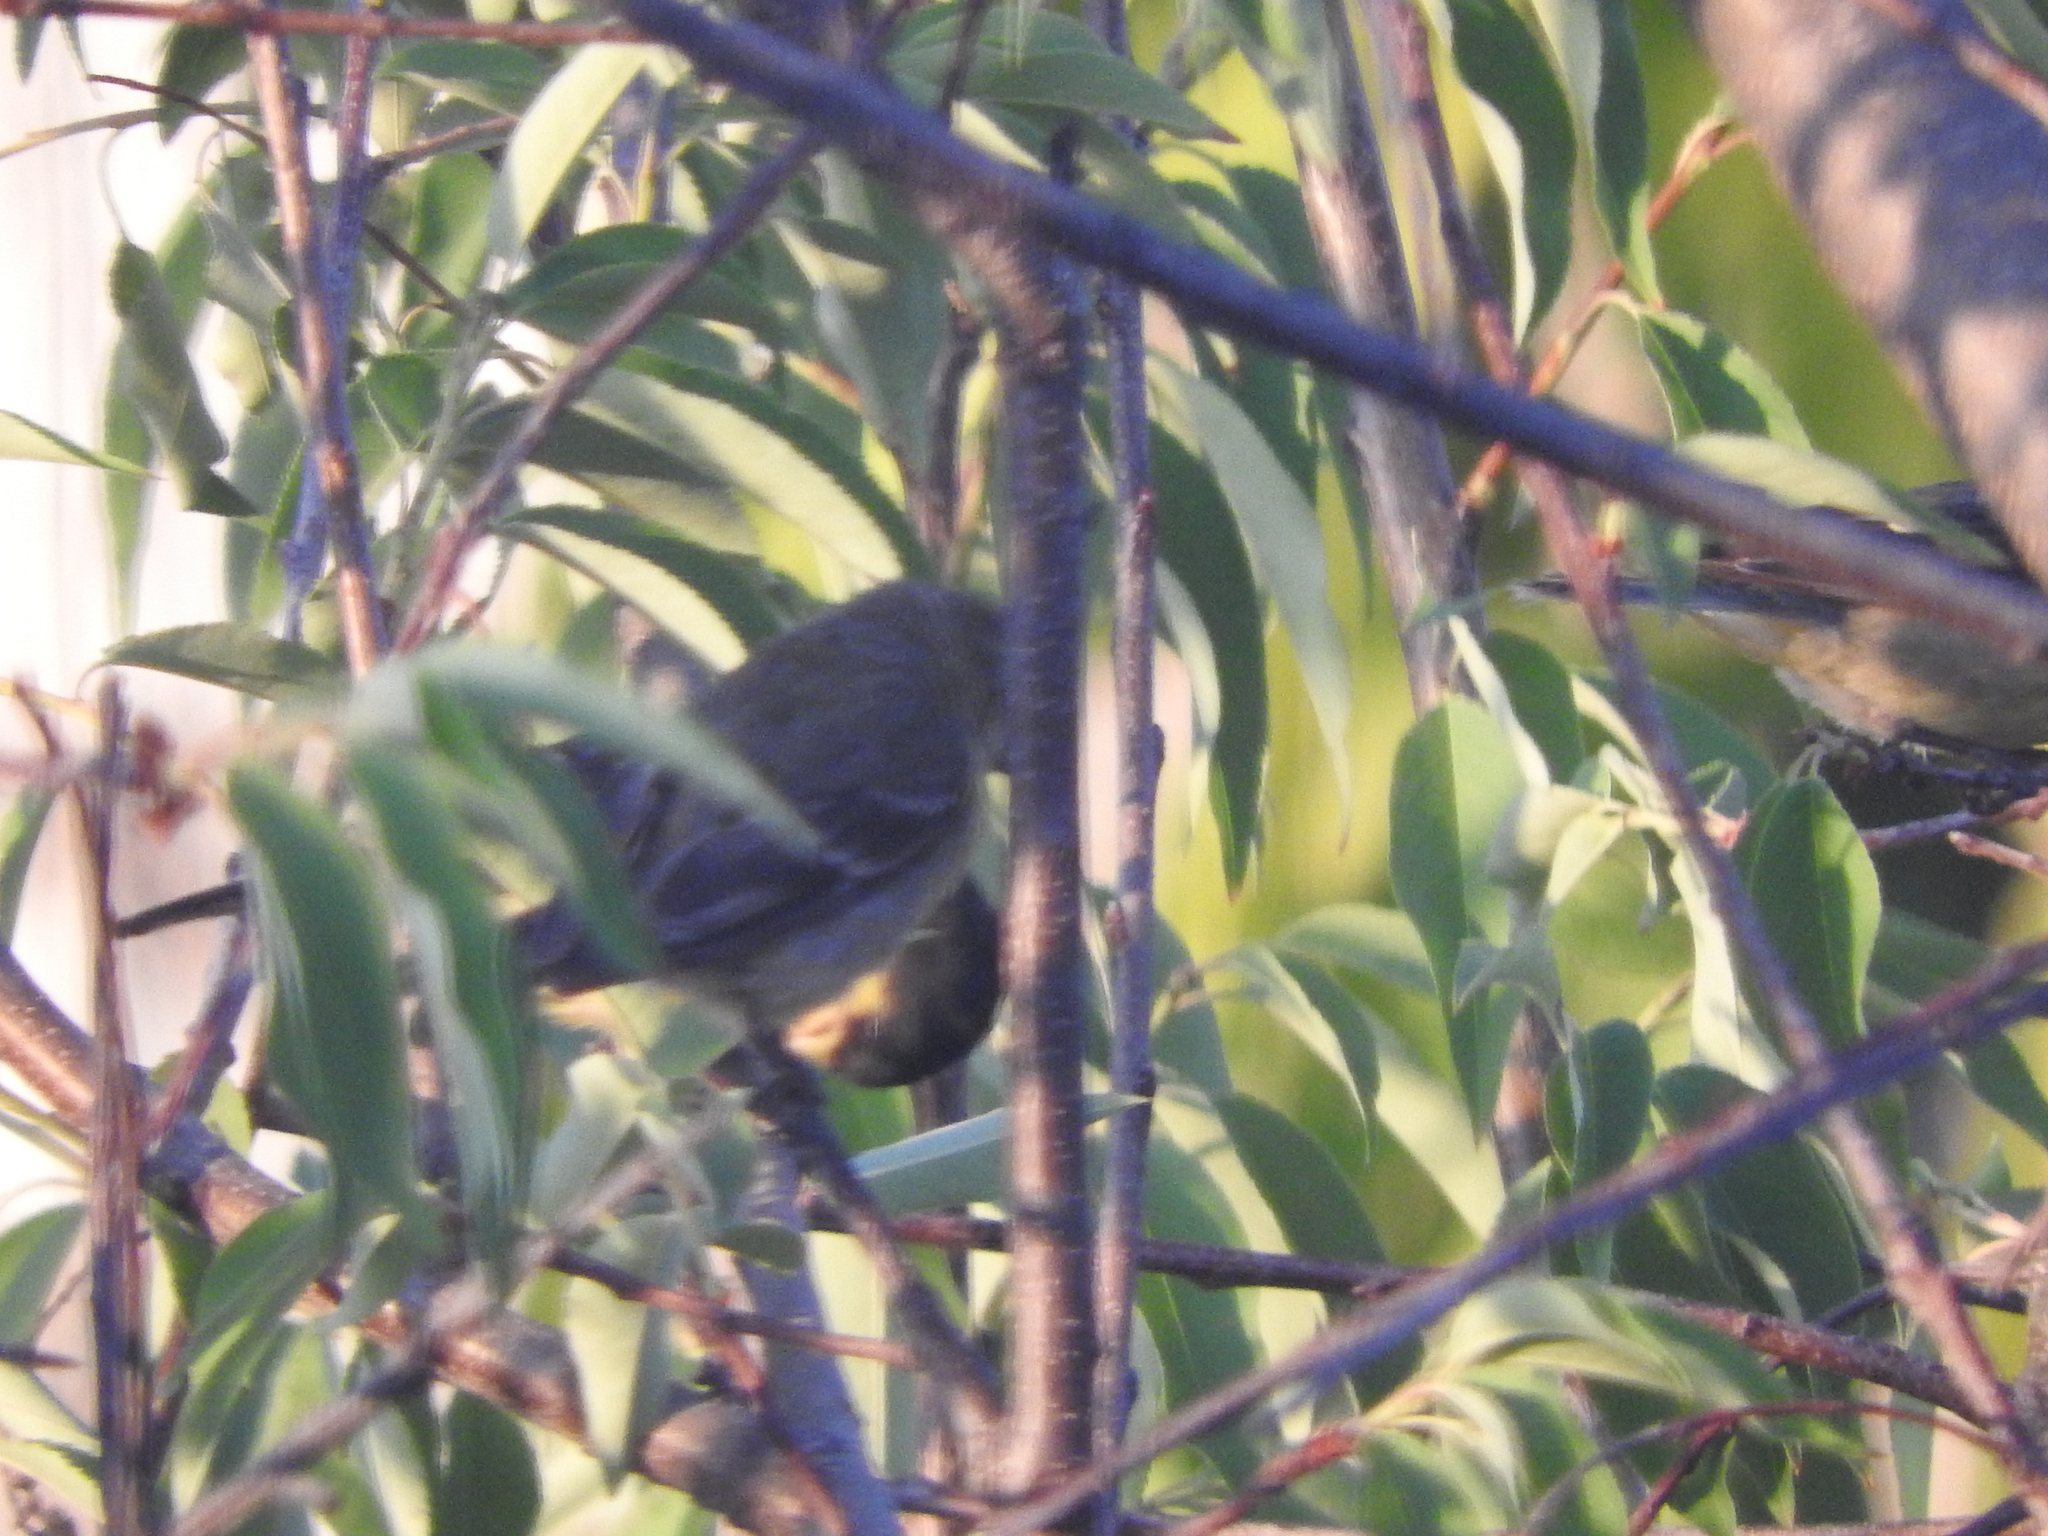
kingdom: Animalia
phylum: Chordata
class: Aves
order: Passeriformes
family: Fringillidae
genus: Spinus
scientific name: Spinus psaltria
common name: Lesser goldfinch
